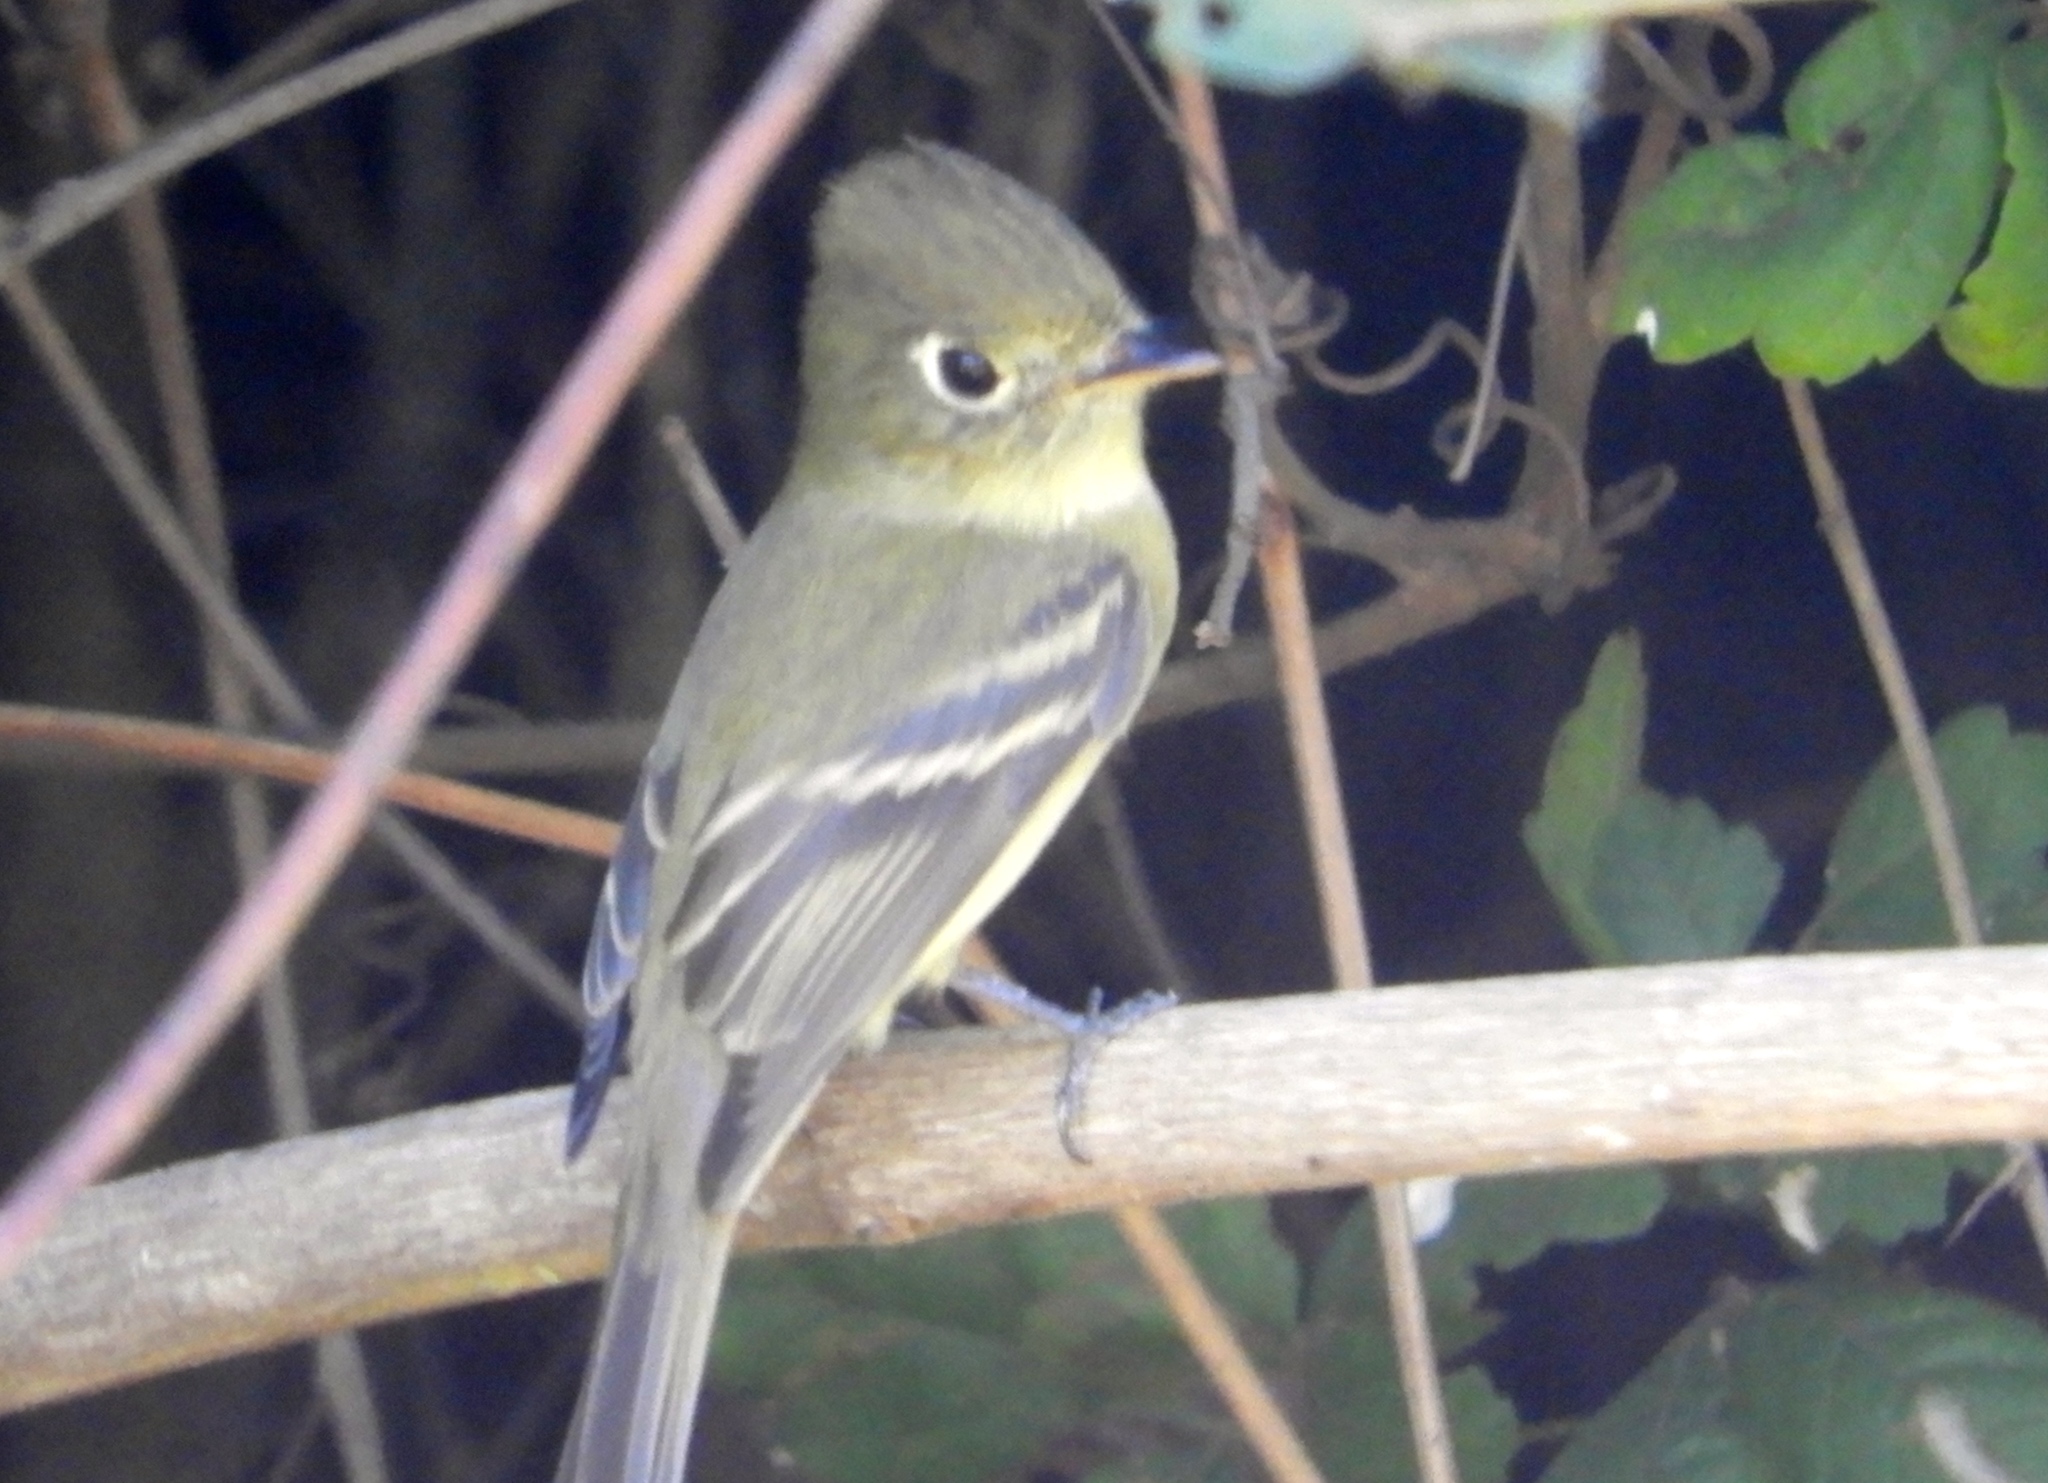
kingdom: Animalia
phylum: Chordata
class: Aves
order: Passeriformes
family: Tyrannidae
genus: Empidonax
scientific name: Empidonax difficilis
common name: Pacific-slope flycatcher
